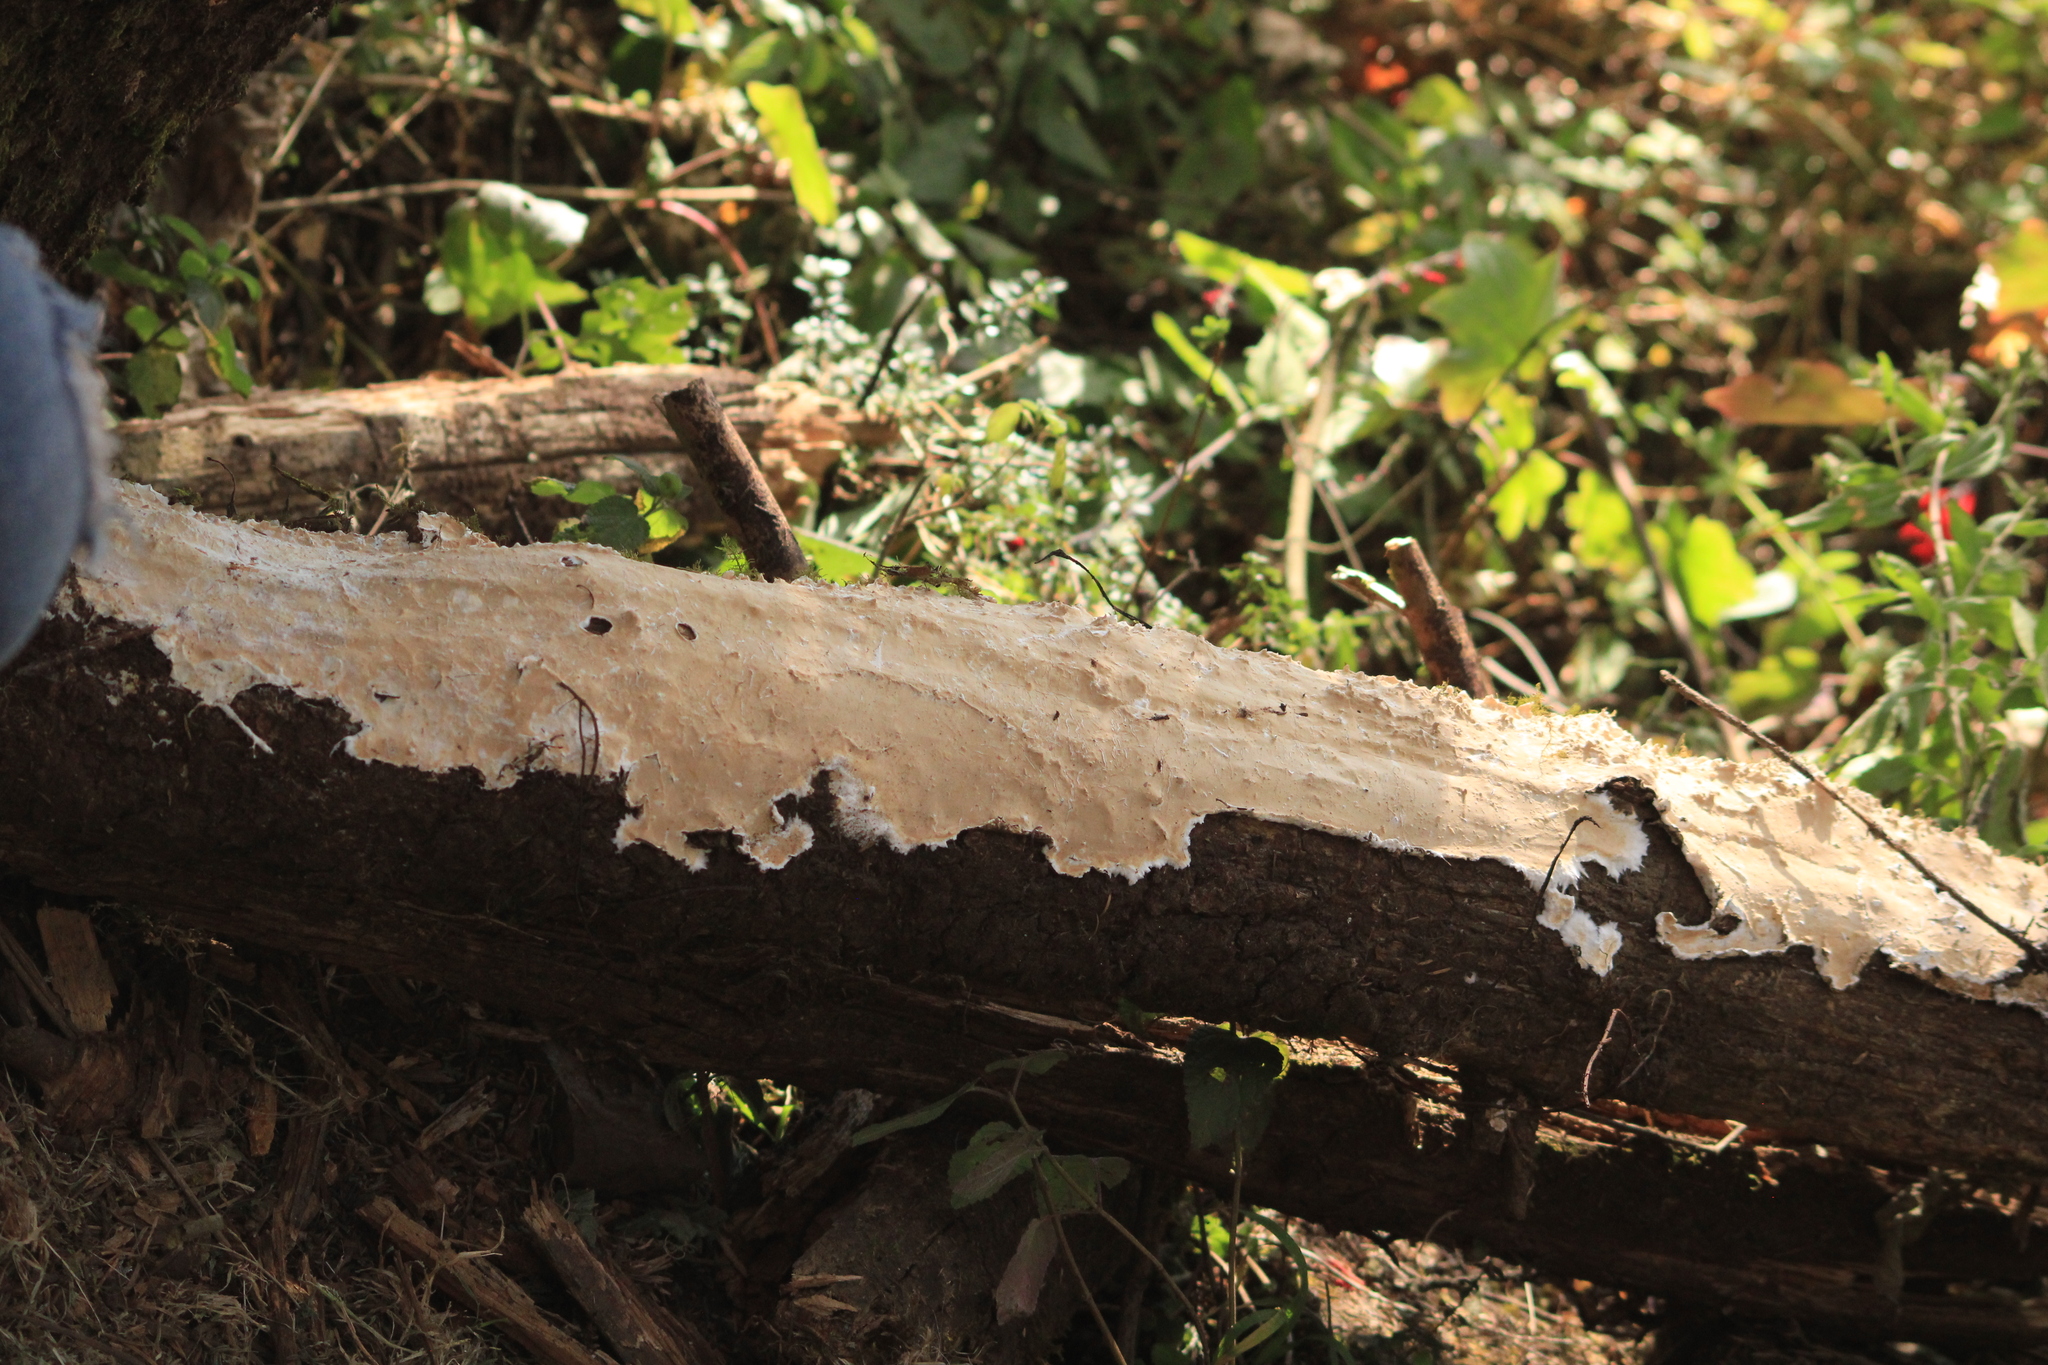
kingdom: Fungi
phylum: Basidiomycota
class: Agaricomycetes
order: Polyporales
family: Irpicaceae
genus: Byssomerulius
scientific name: Byssomerulius corium
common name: Netted crust
